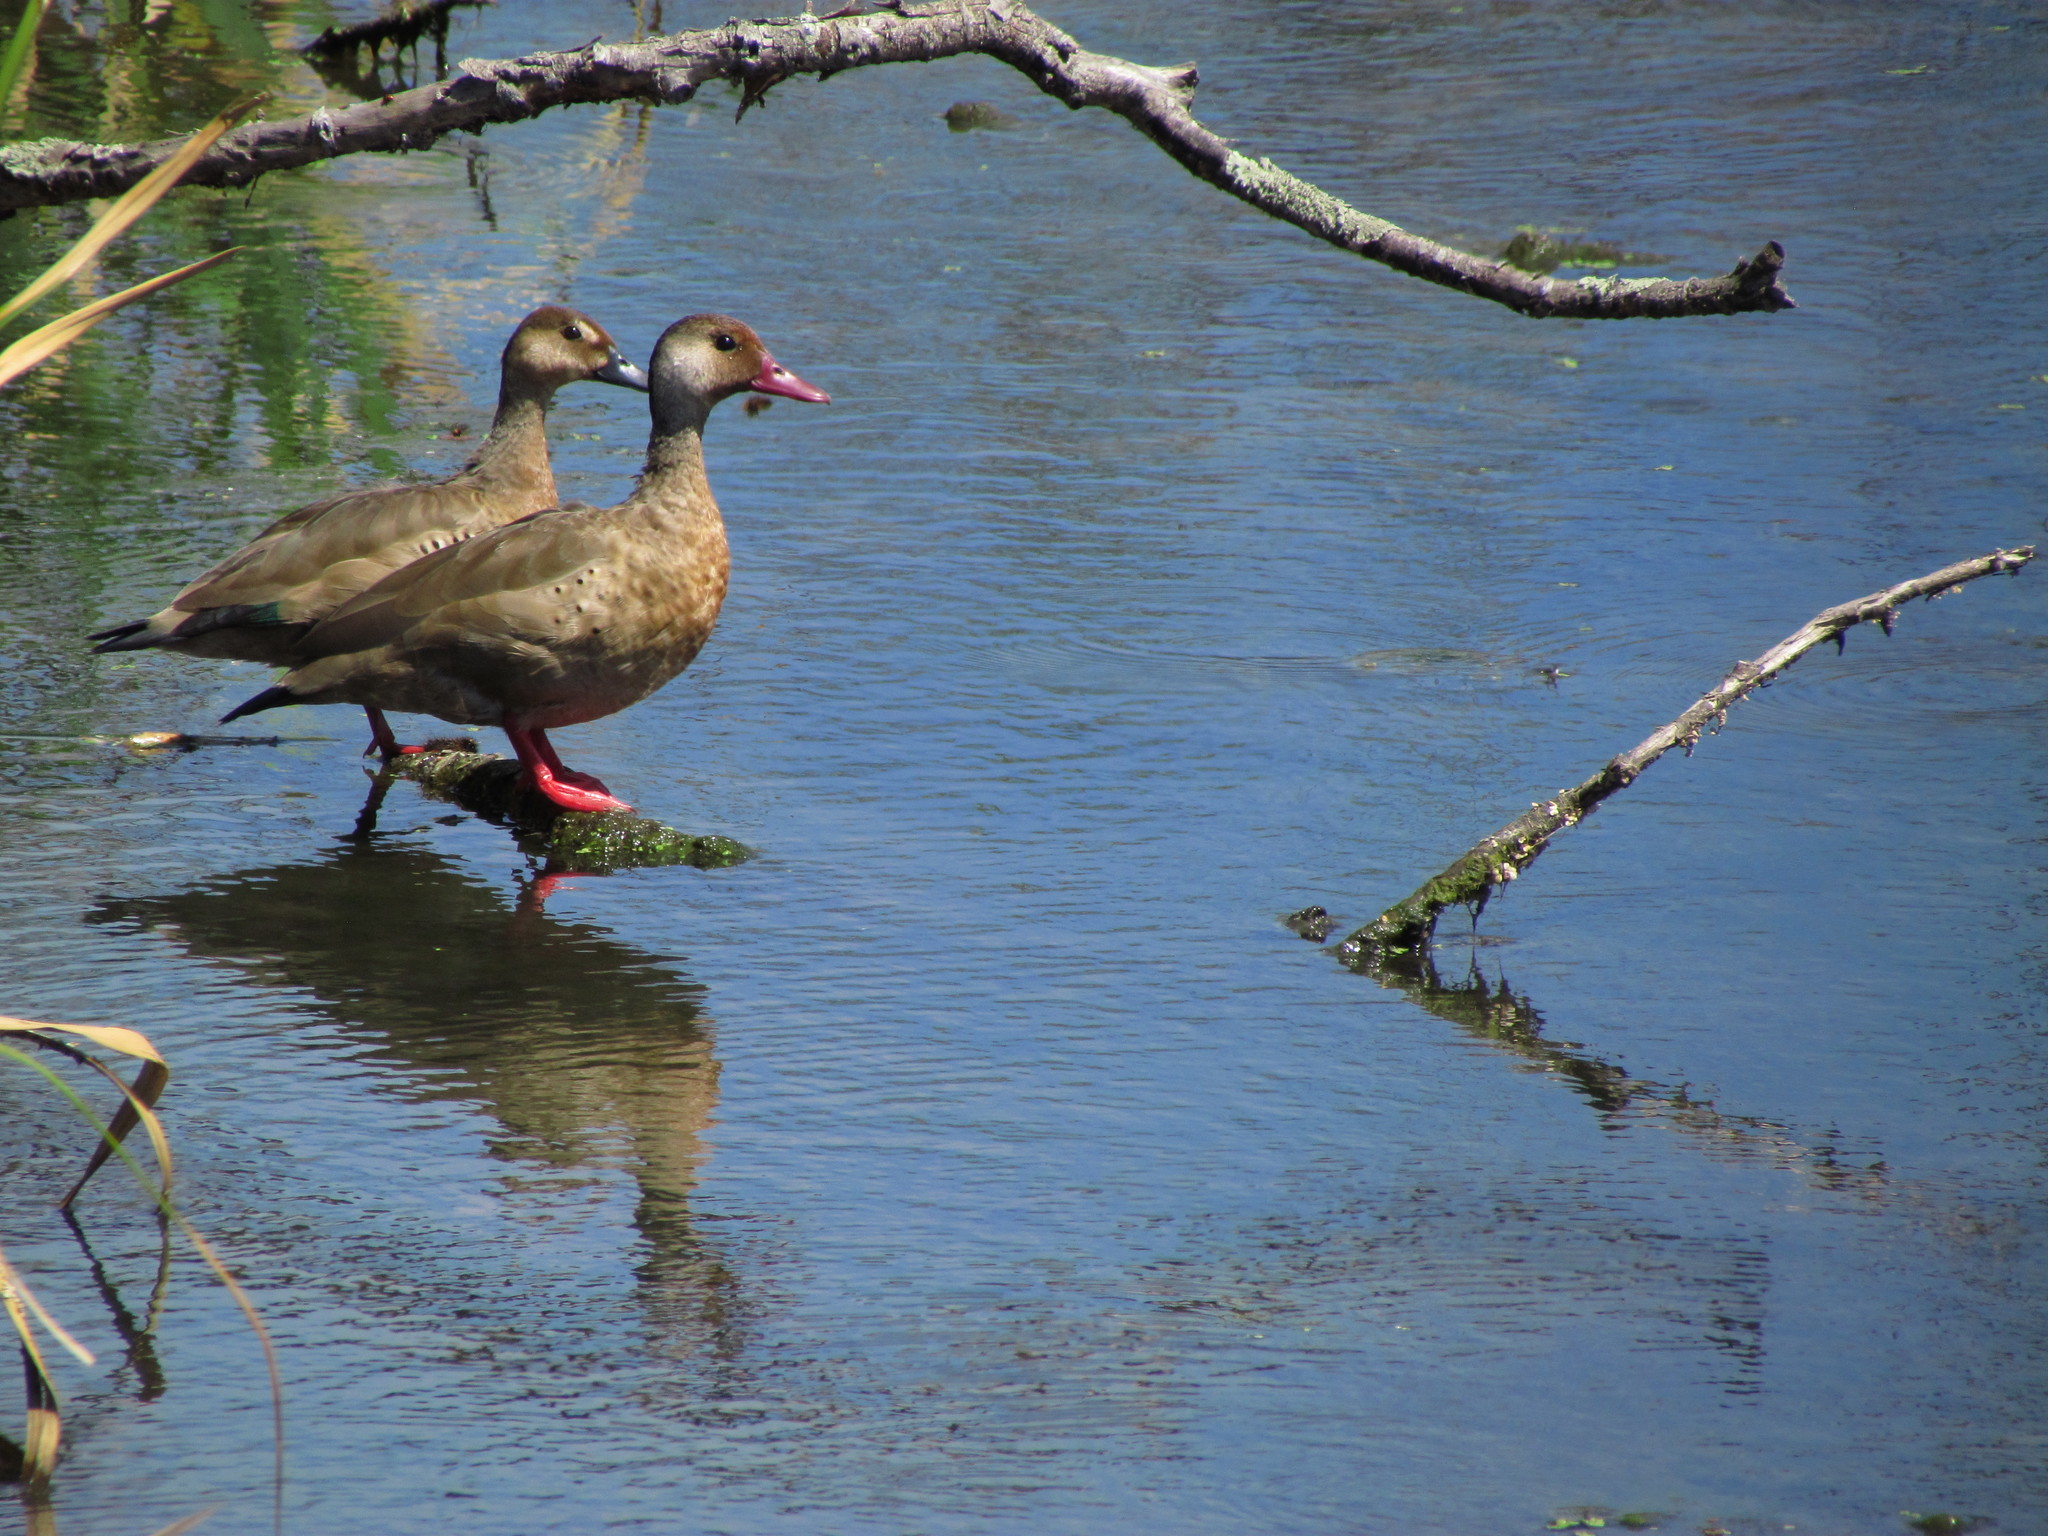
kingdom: Animalia
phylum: Chordata
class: Aves
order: Anseriformes
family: Anatidae
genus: Amazonetta
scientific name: Amazonetta brasiliensis
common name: Brazilian teal
